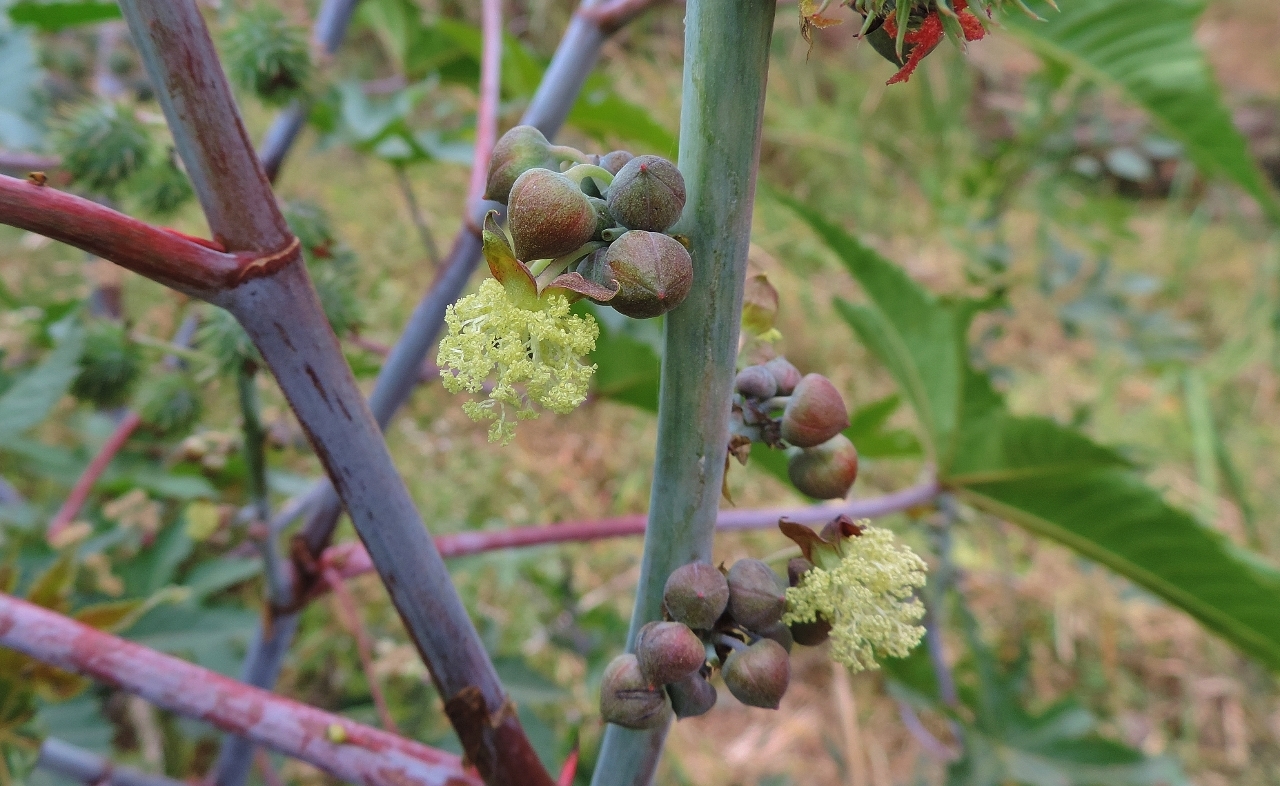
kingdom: Plantae
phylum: Tracheophyta
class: Magnoliopsida
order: Malpighiales
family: Euphorbiaceae
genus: Ricinus
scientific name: Ricinus communis
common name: Castor-oil-plant
